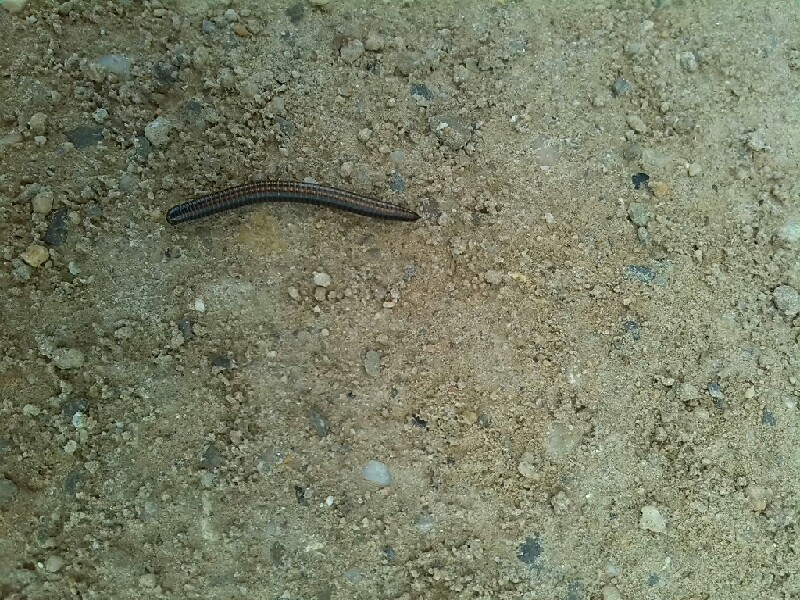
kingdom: Animalia
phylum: Arthropoda
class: Diplopoda
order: Julida
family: Julidae
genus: Ommatoiulus
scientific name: Ommatoiulus sabulosus
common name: Striped millipede
